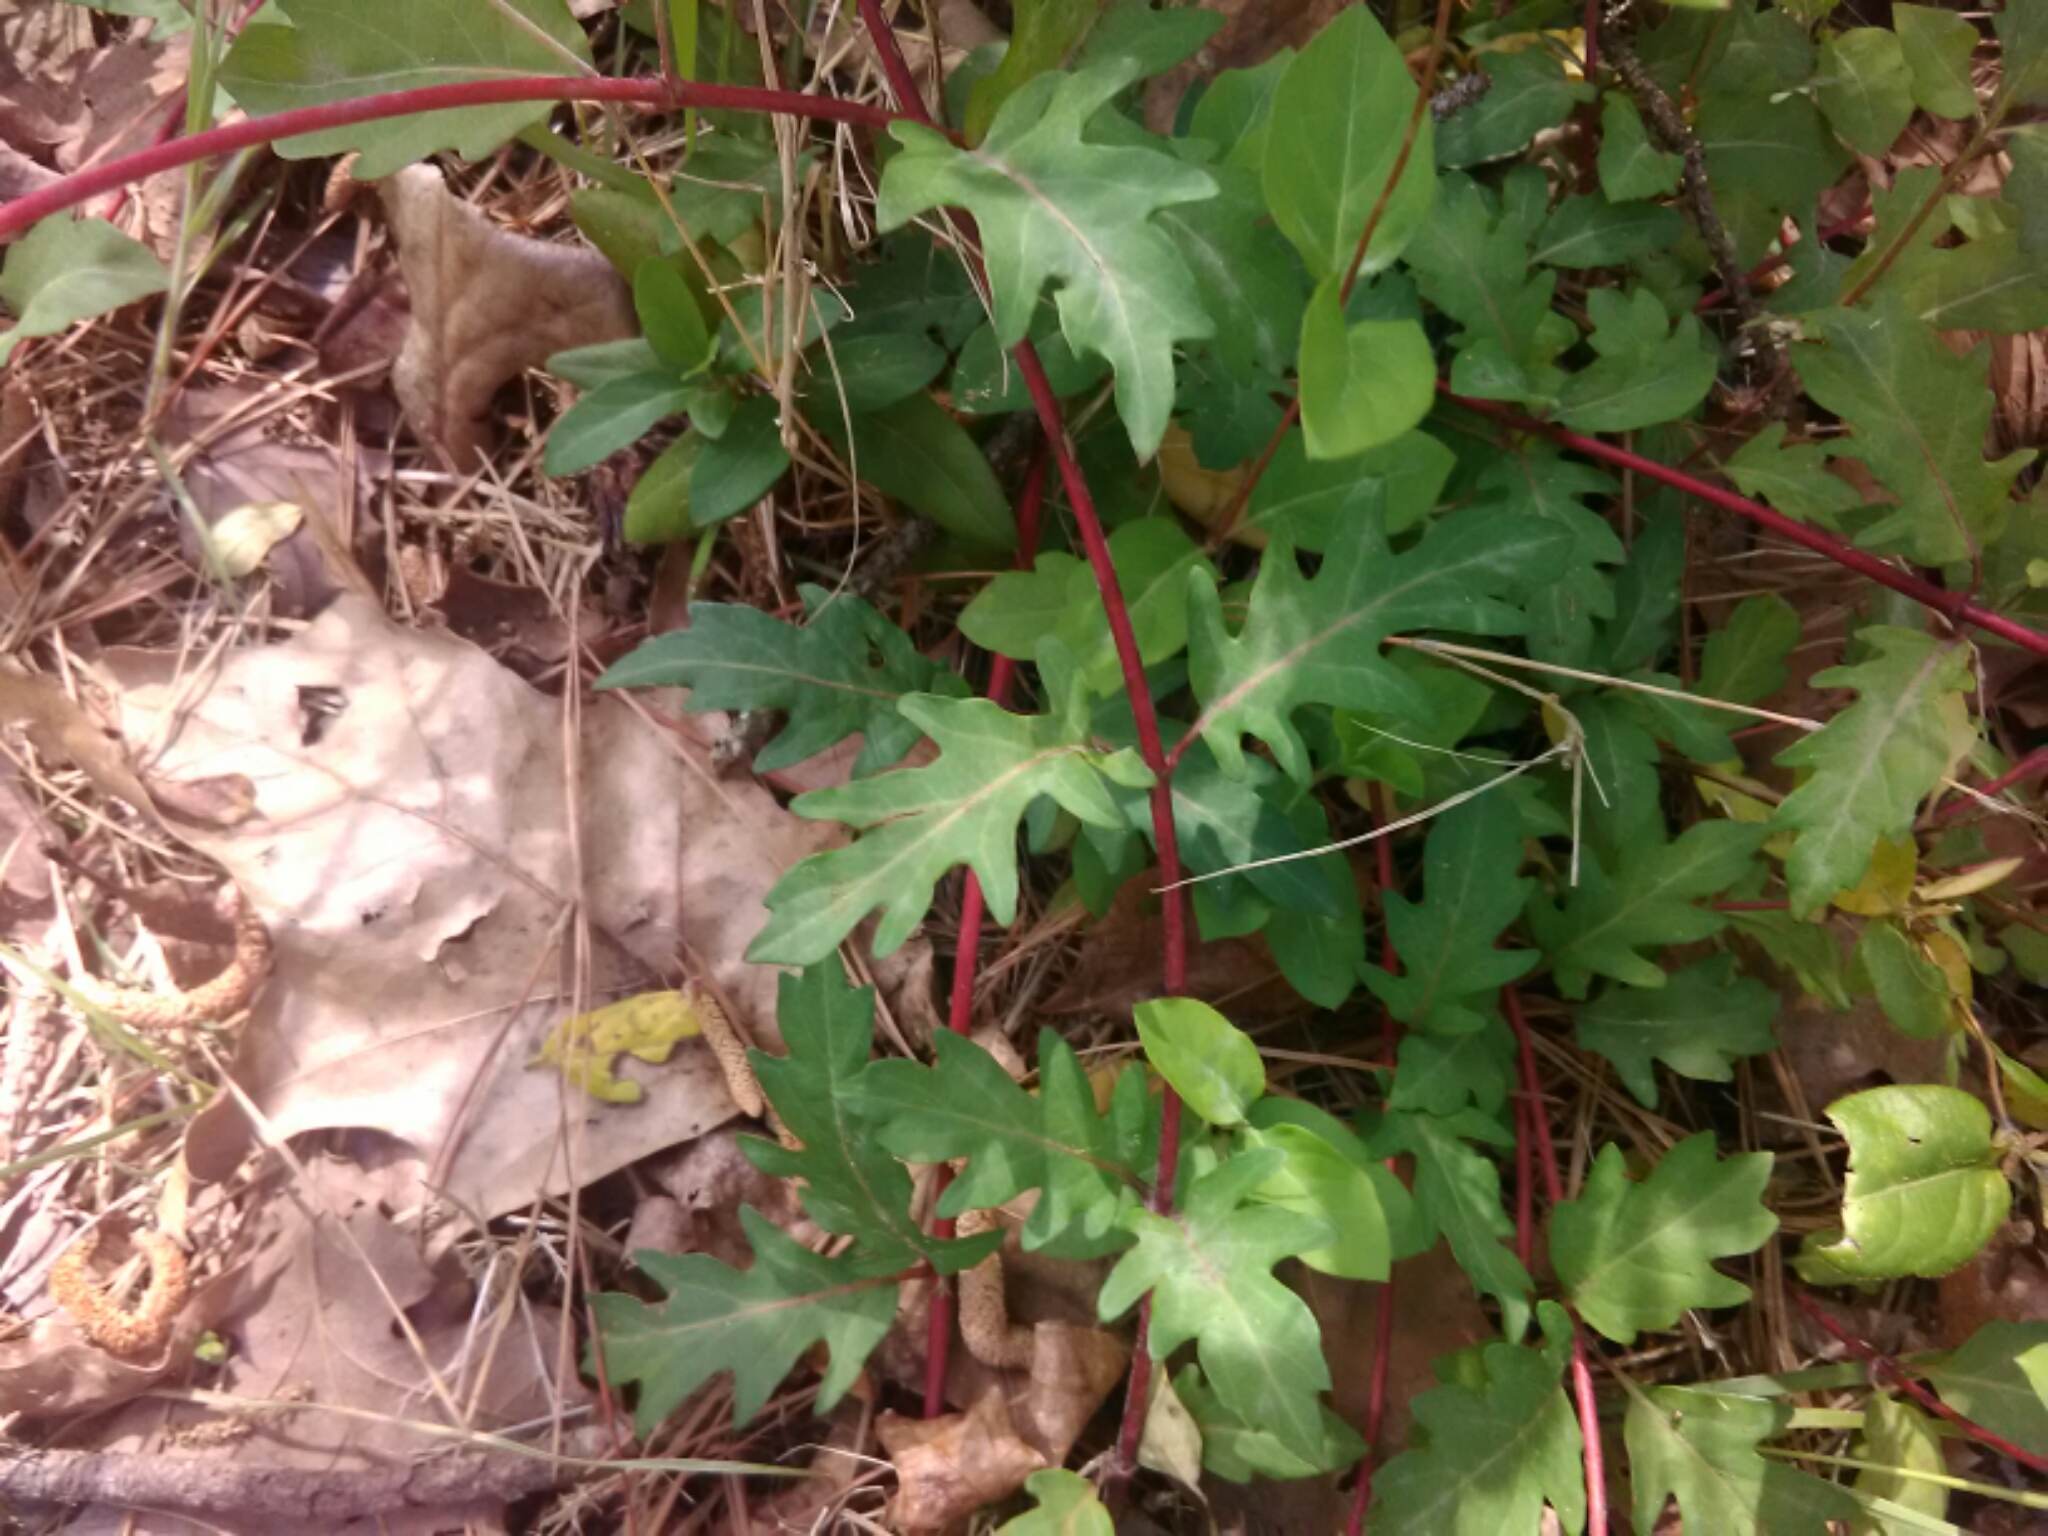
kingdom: Plantae
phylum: Tracheophyta
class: Magnoliopsida
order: Dipsacales
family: Caprifoliaceae
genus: Lonicera
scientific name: Lonicera japonica
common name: Japanese honeysuckle
